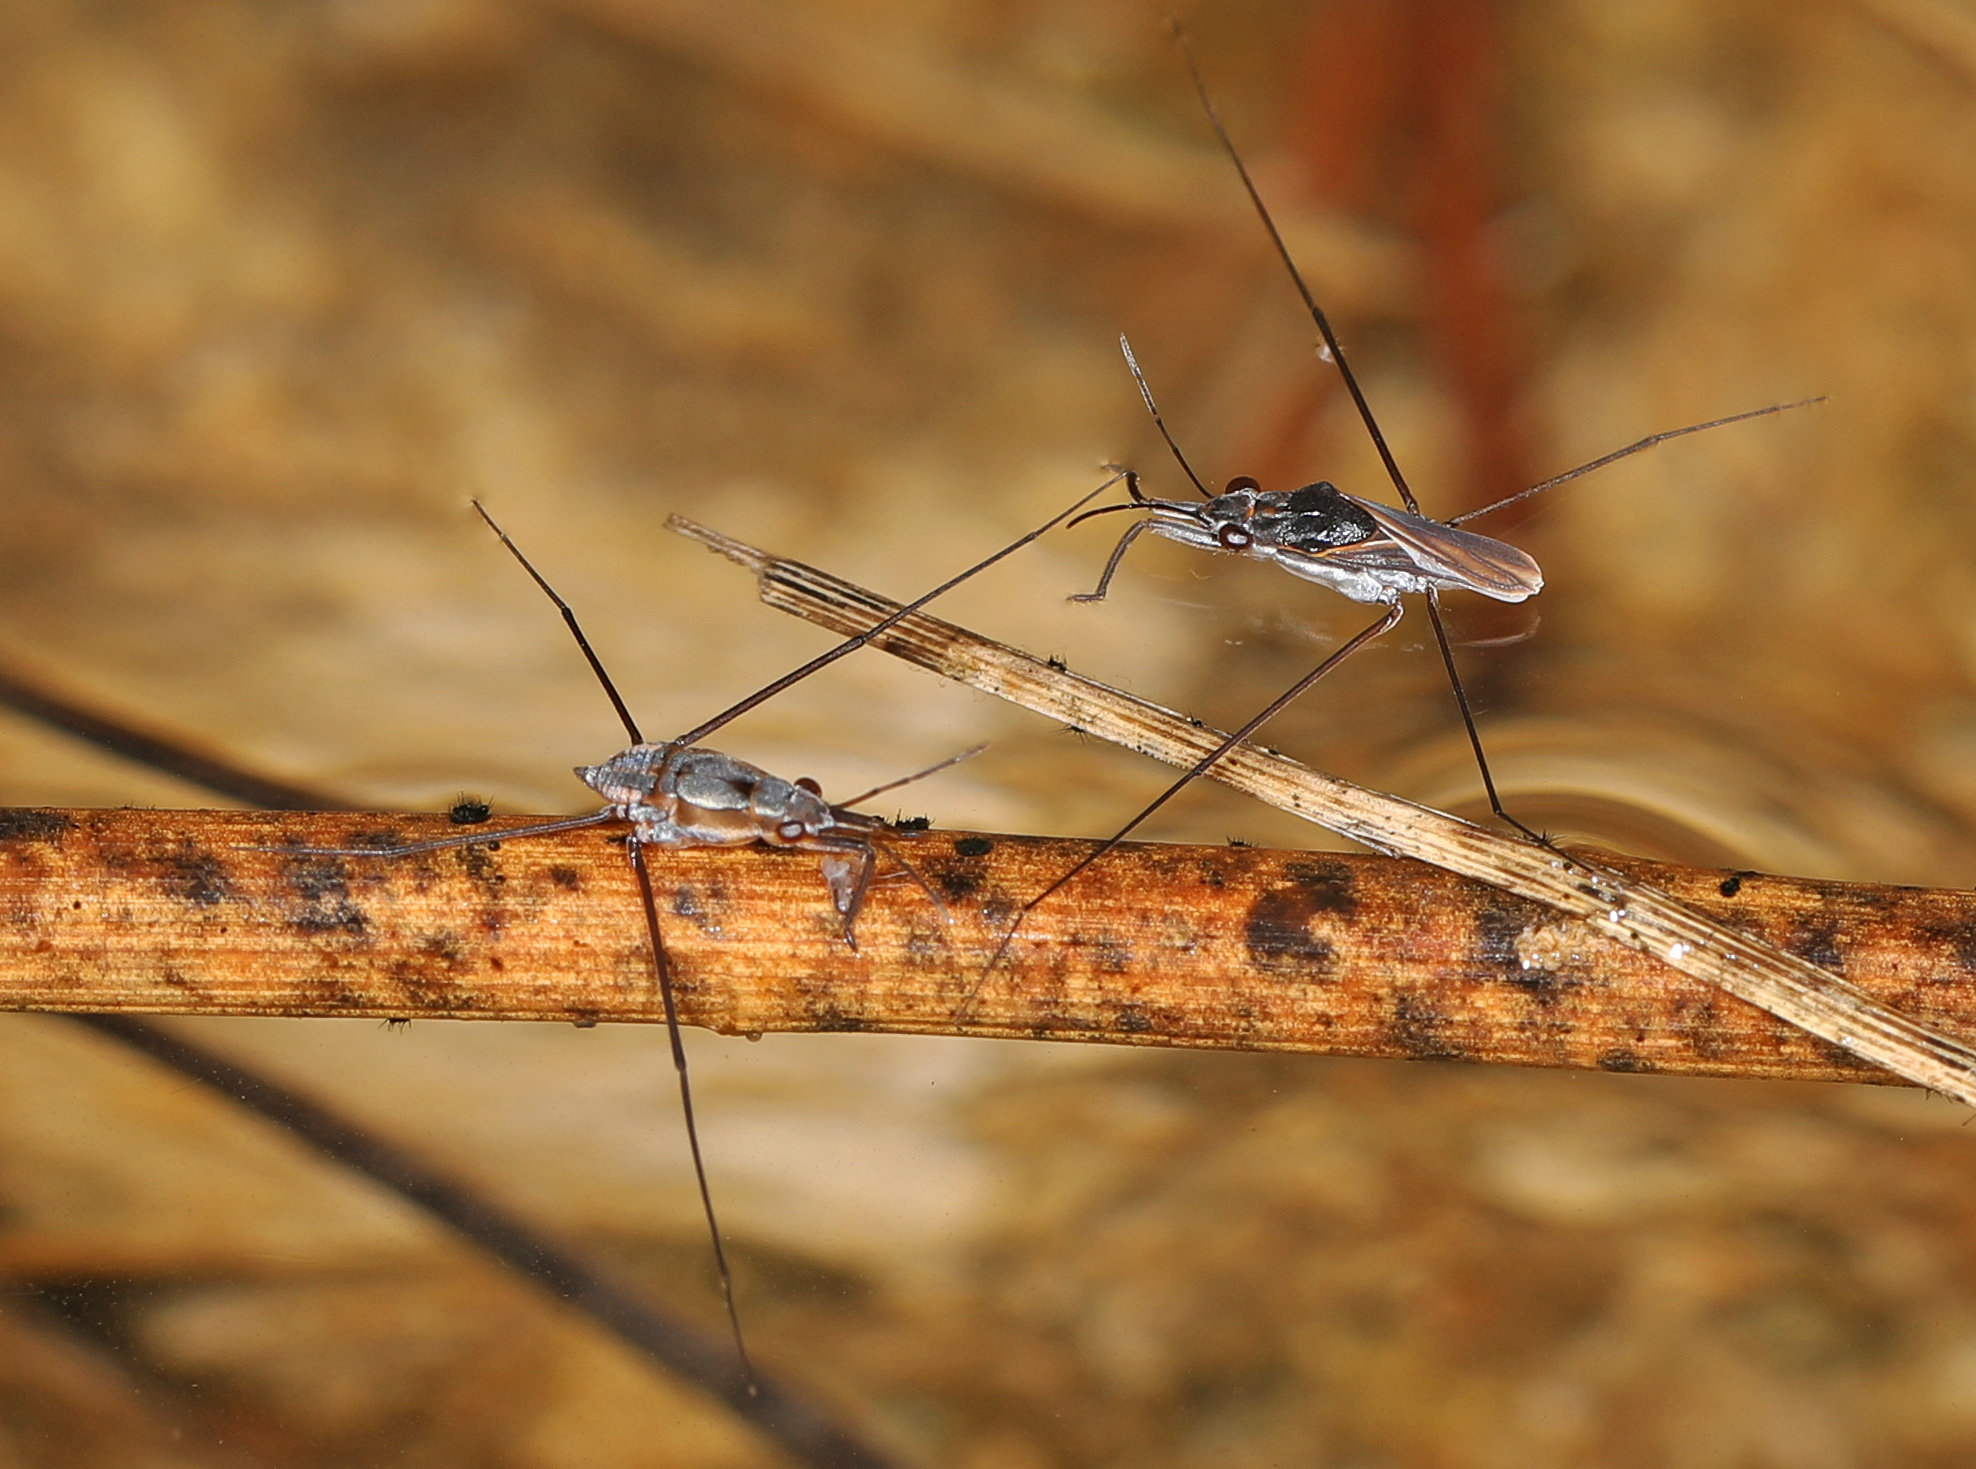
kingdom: Animalia
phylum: Arthropoda
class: Insecta
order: Hemiptera
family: Gerridae
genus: Neogerris
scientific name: Neogerris hesione
